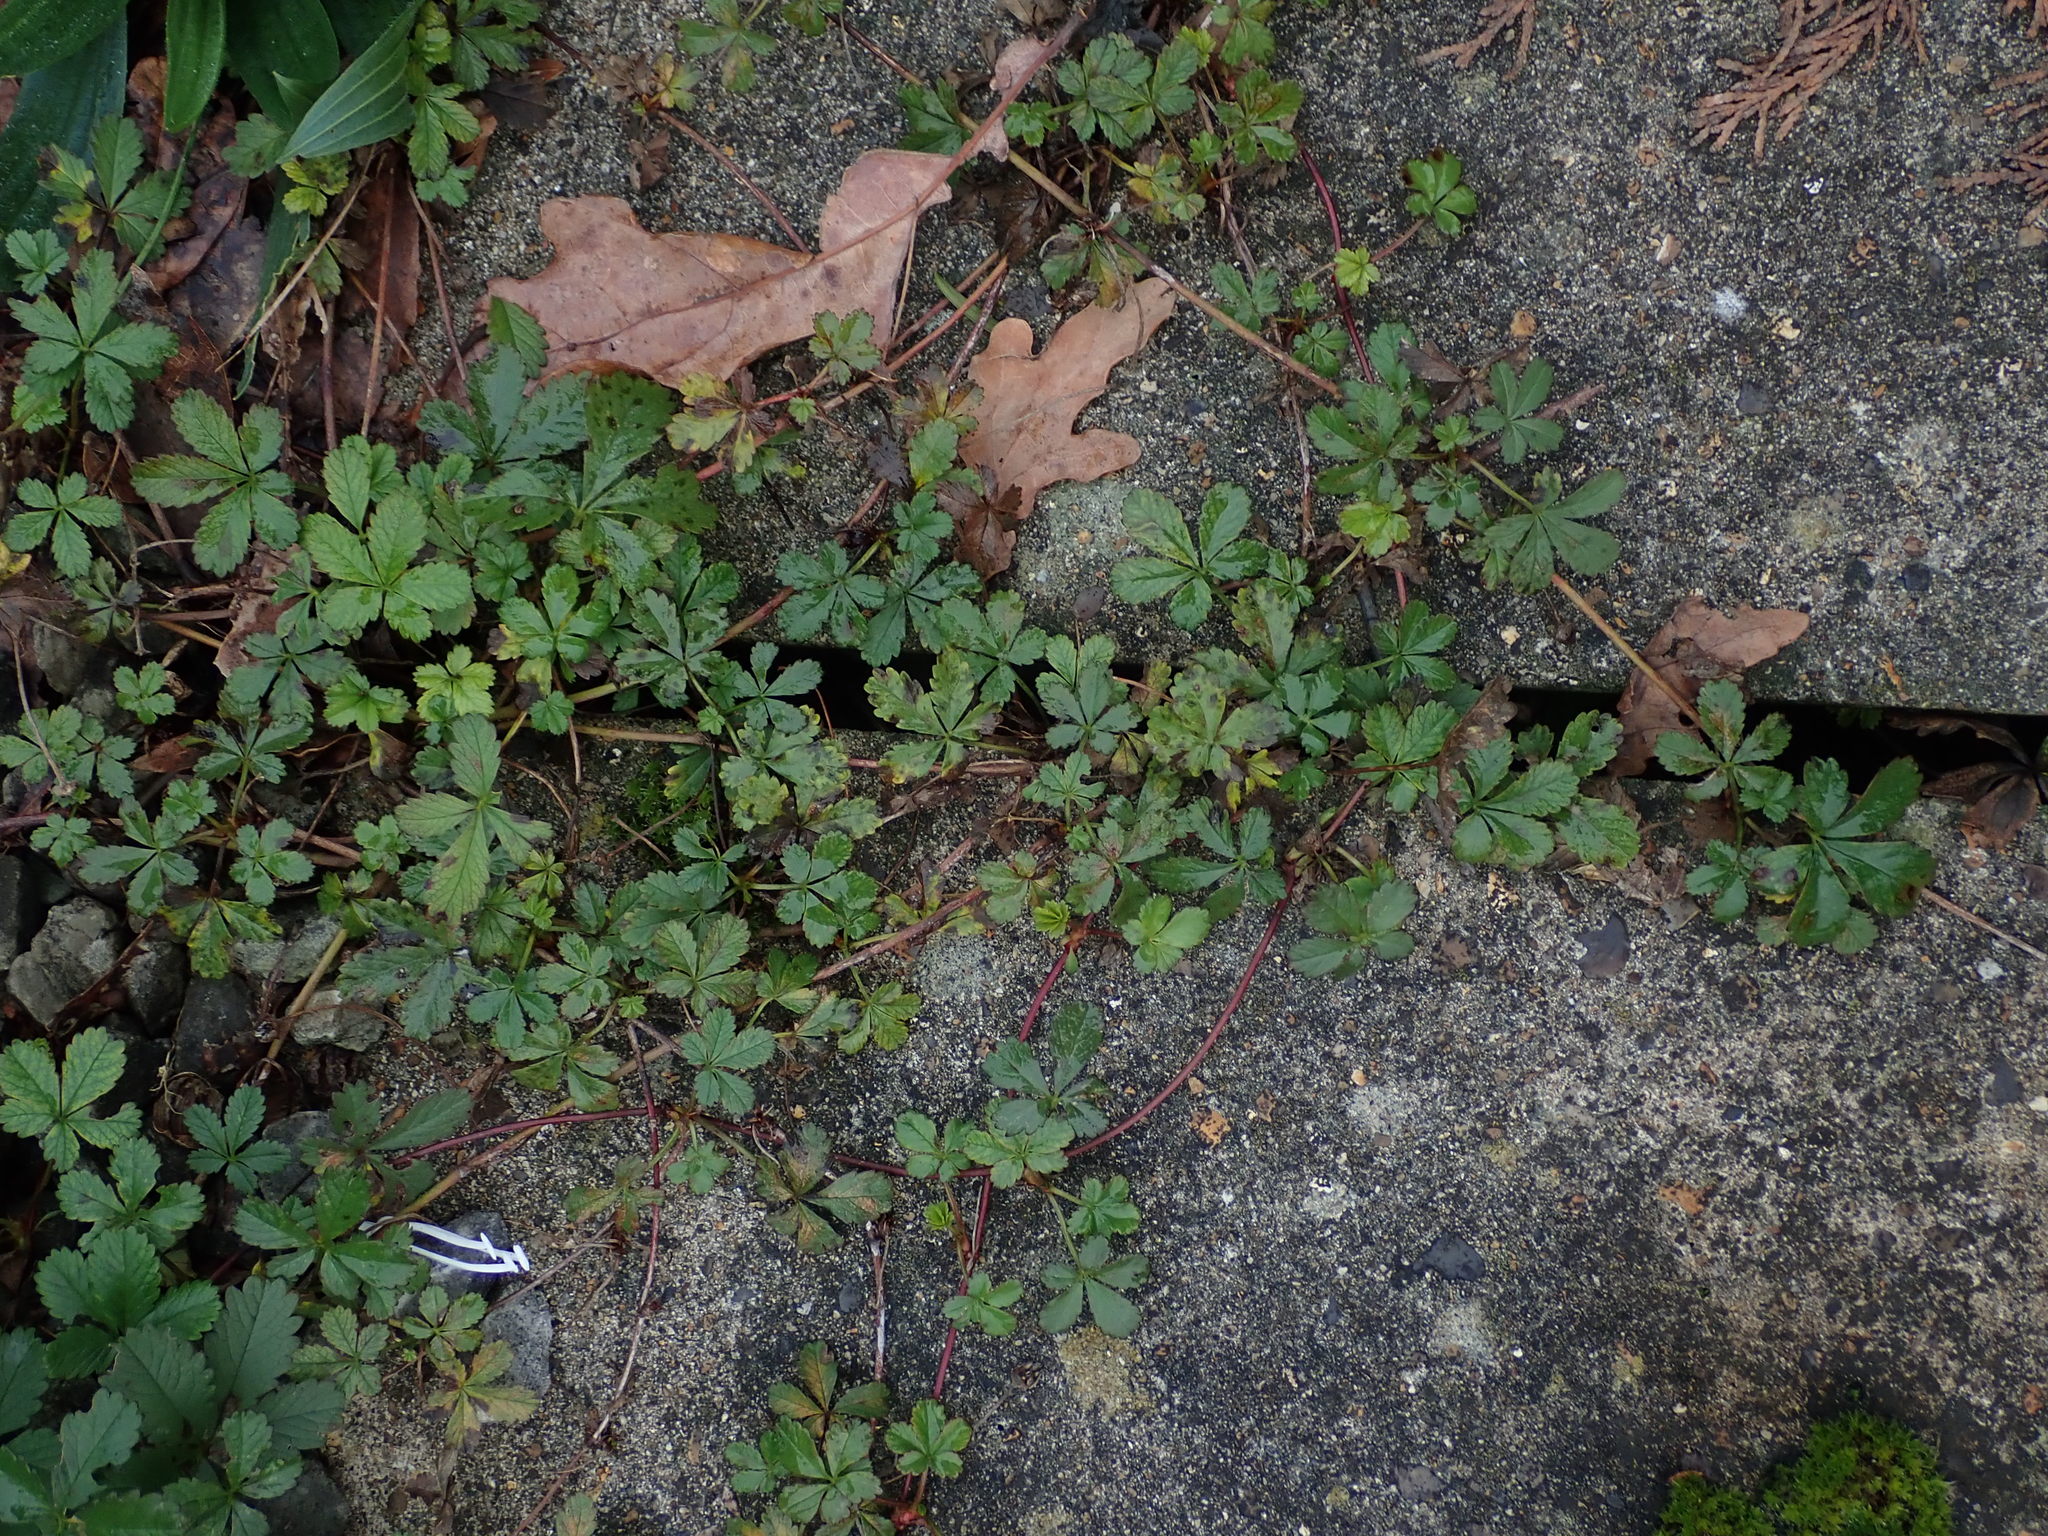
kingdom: Plantae
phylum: Tracheophyta
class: Magnoliopsida
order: Rosales
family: Rosaceae
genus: Potentilla
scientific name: Potentilla reptans
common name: Creeping cinquefoil
